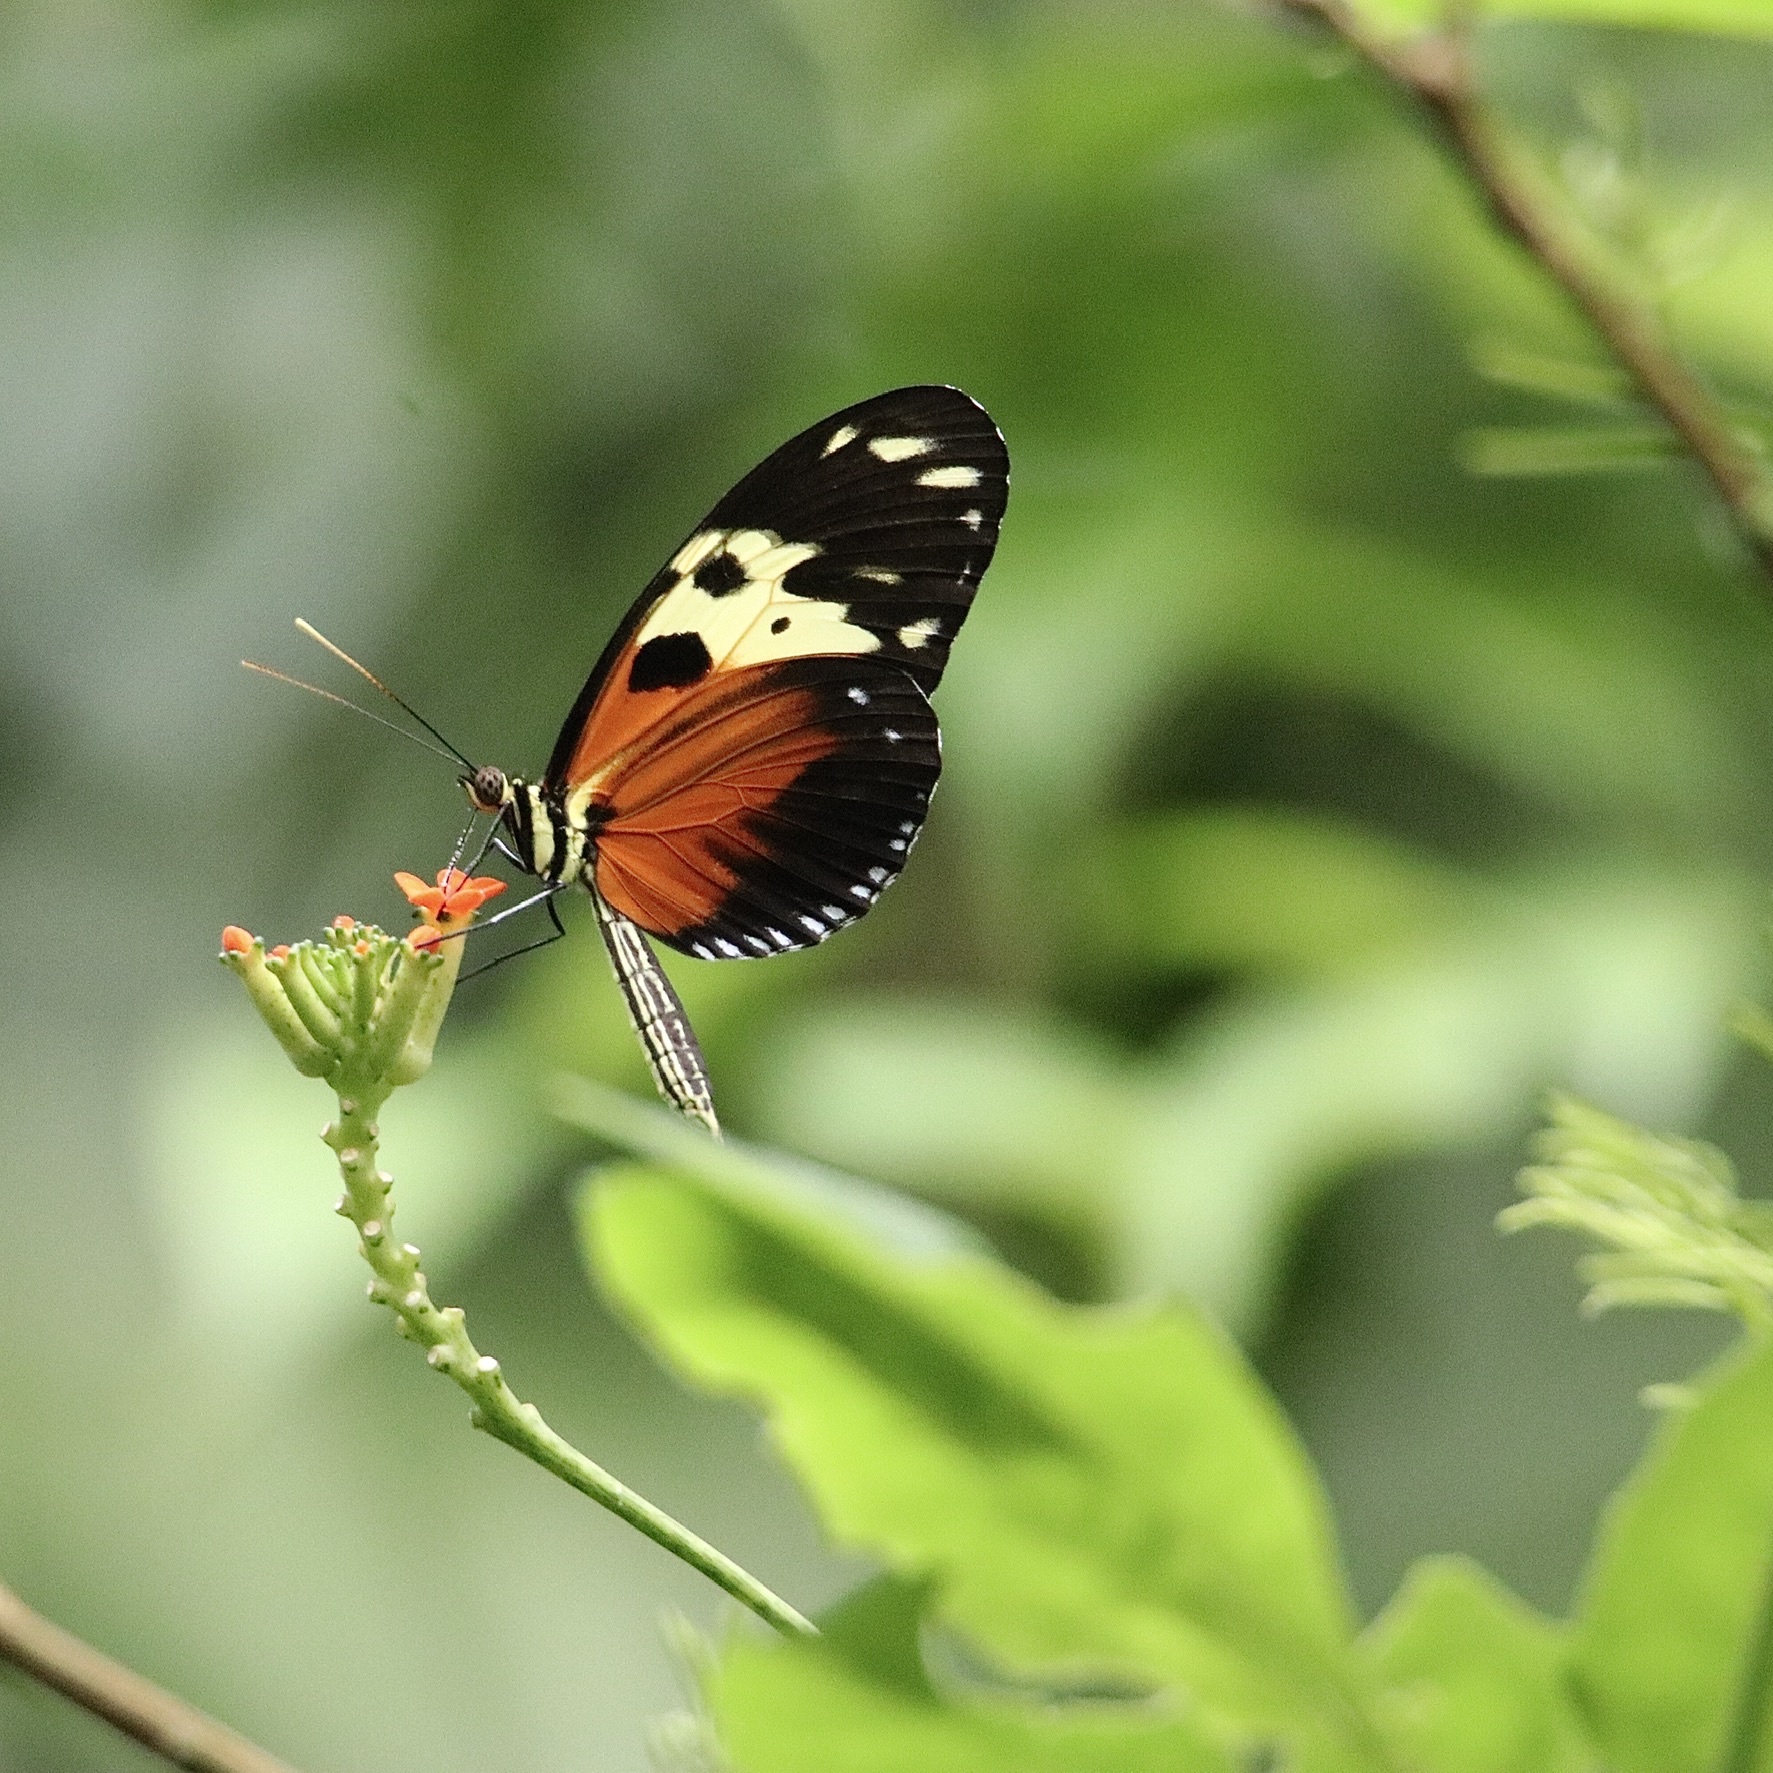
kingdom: Animalia
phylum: Arthropoda
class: Insecta
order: Lepidoptera
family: Nymphalidae
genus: Heliconius
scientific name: Heliconius hecale
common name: Tiger longwing
